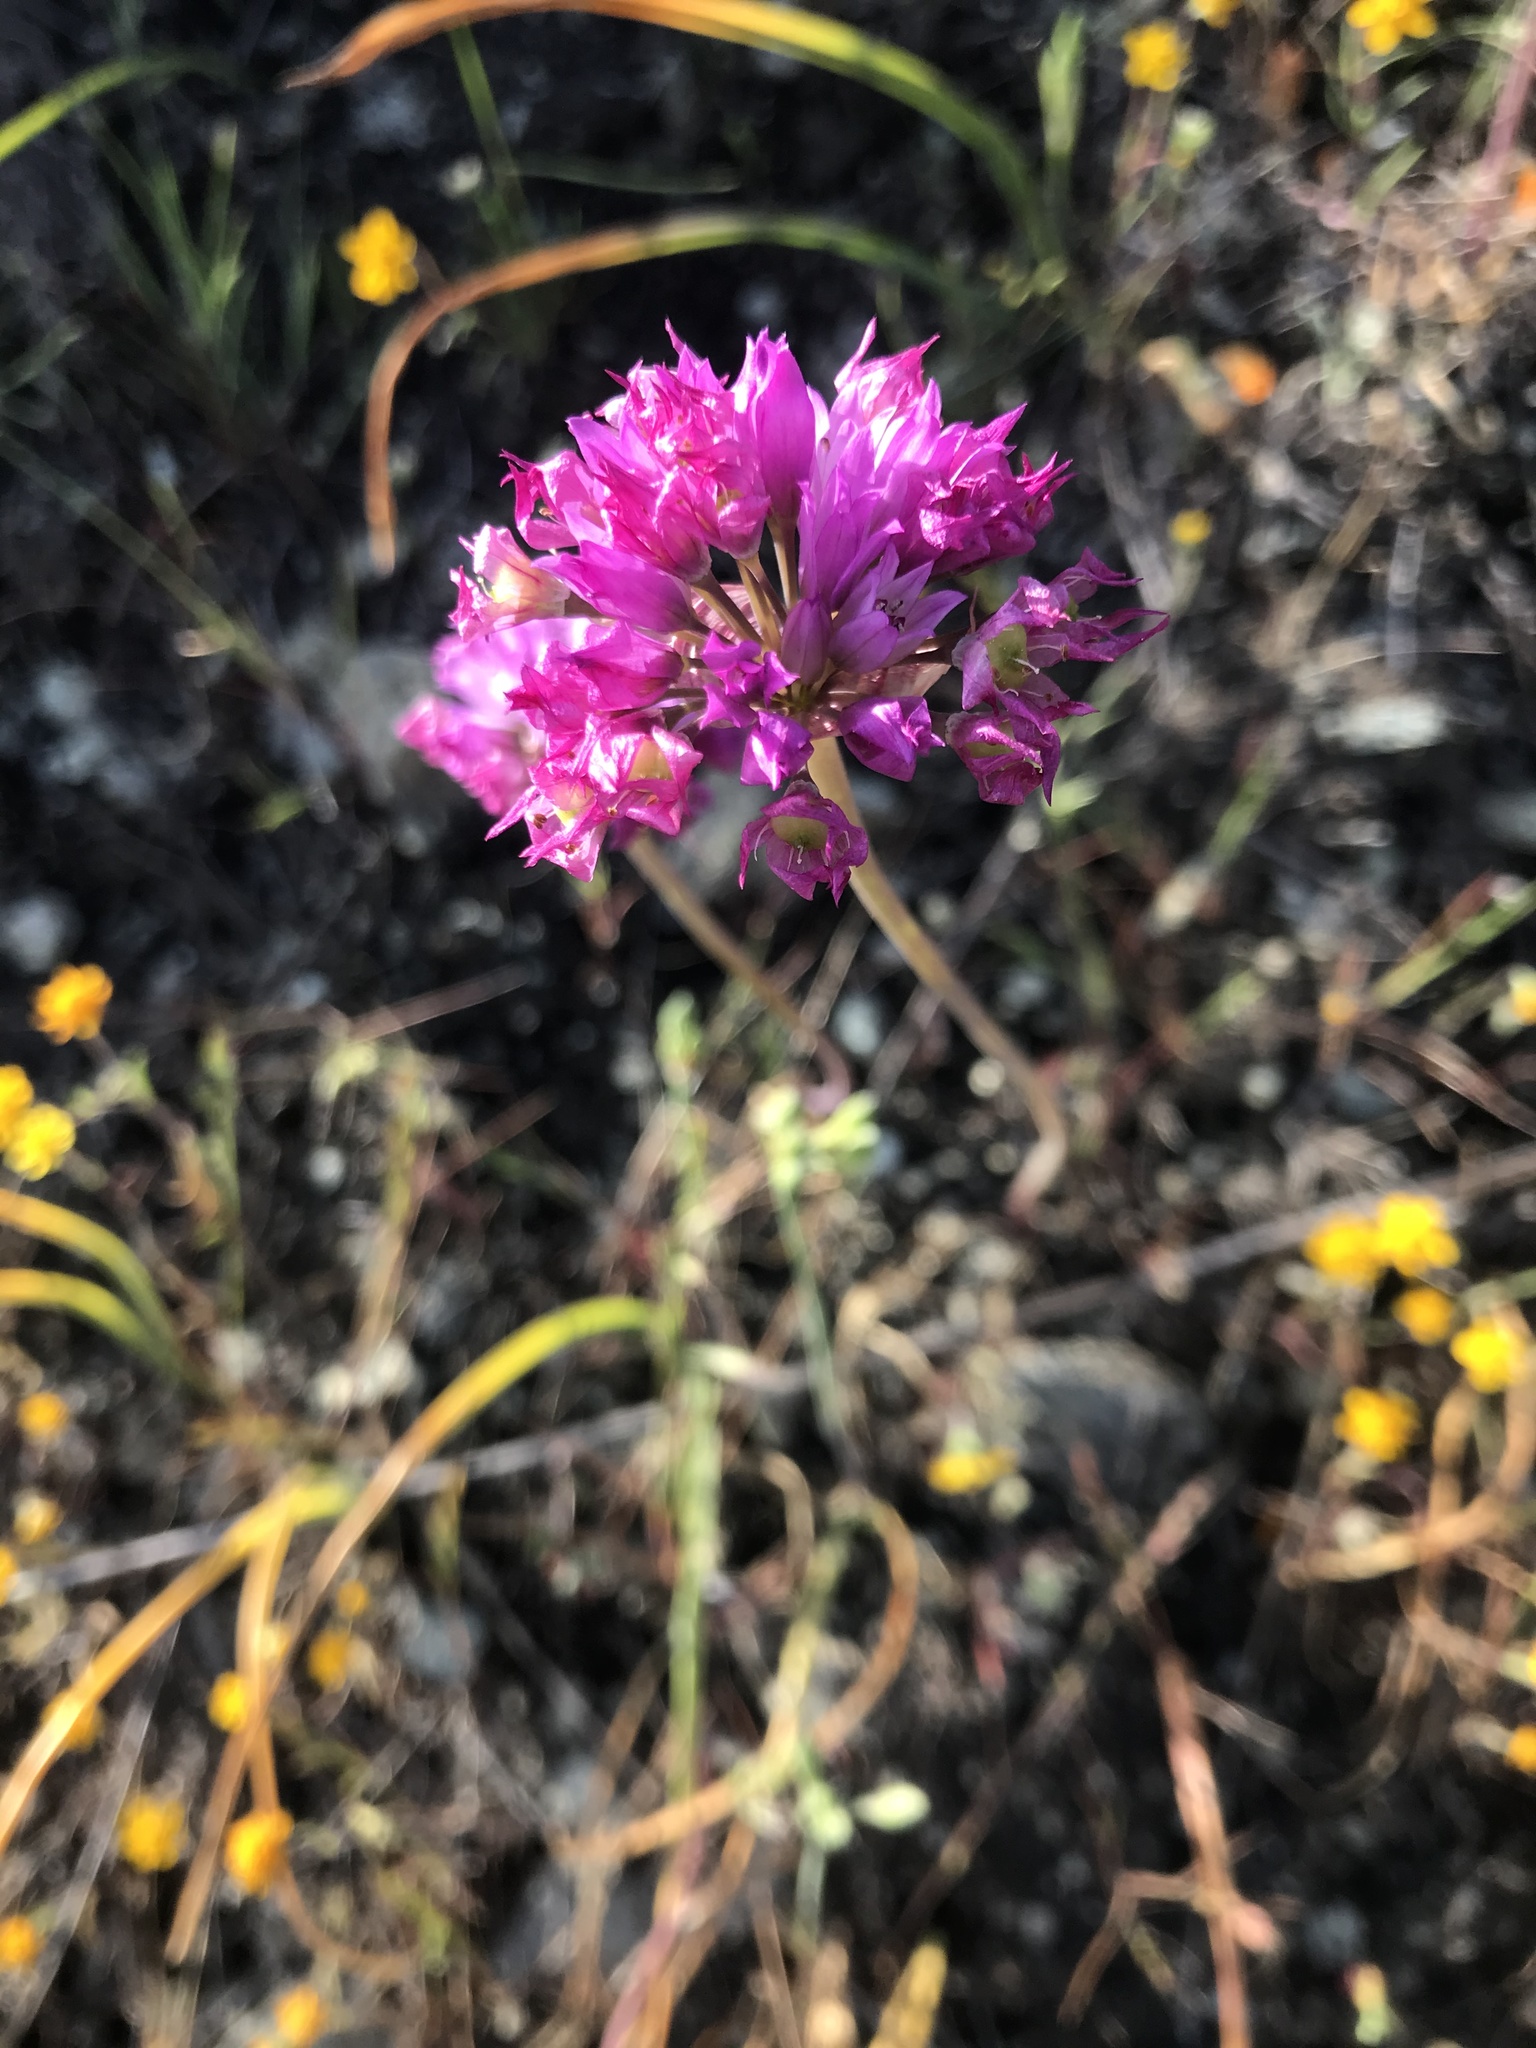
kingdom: Plantae
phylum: Tracheophyta
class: Liliopsida
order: Asparagales
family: Amaryllidaceae
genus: Allium
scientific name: Allium serra
